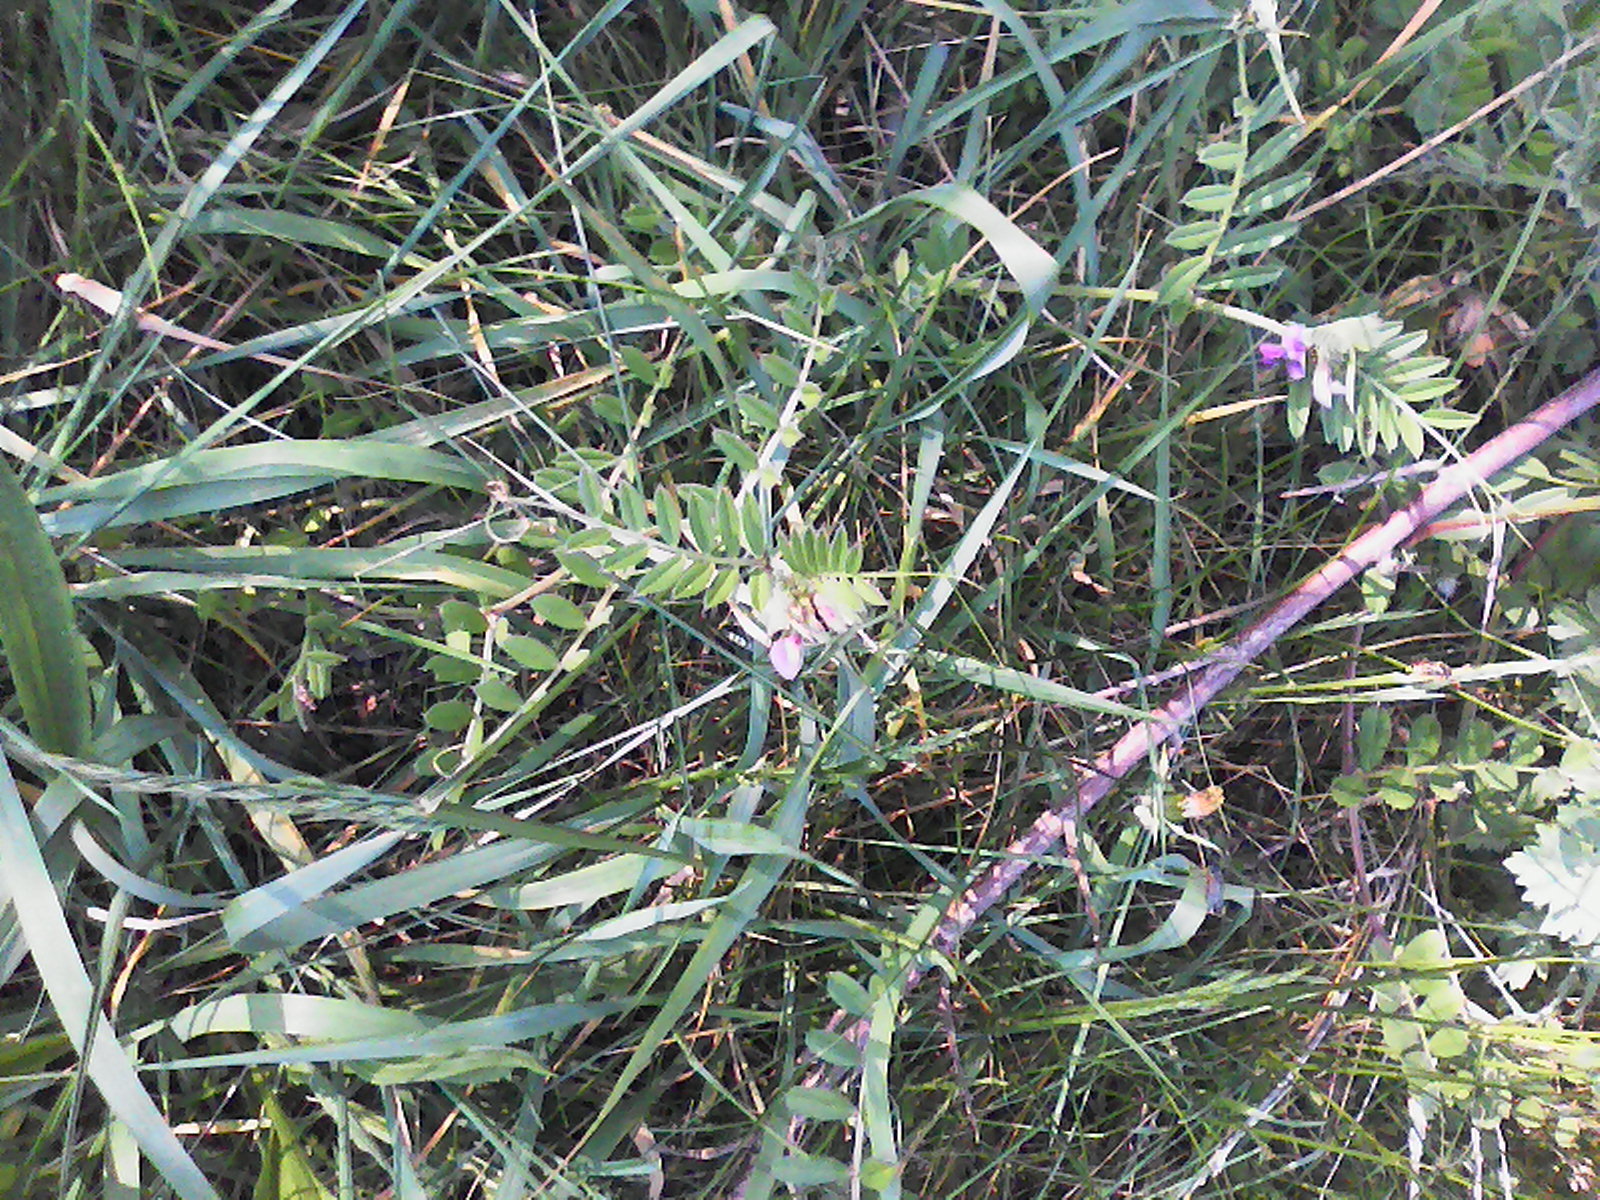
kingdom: Plantae
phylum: Tracheophyta
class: Magnoliopsida
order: Fabales
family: Fabaceae
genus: Vicia
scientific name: Vicia sepium
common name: Bush vetch
